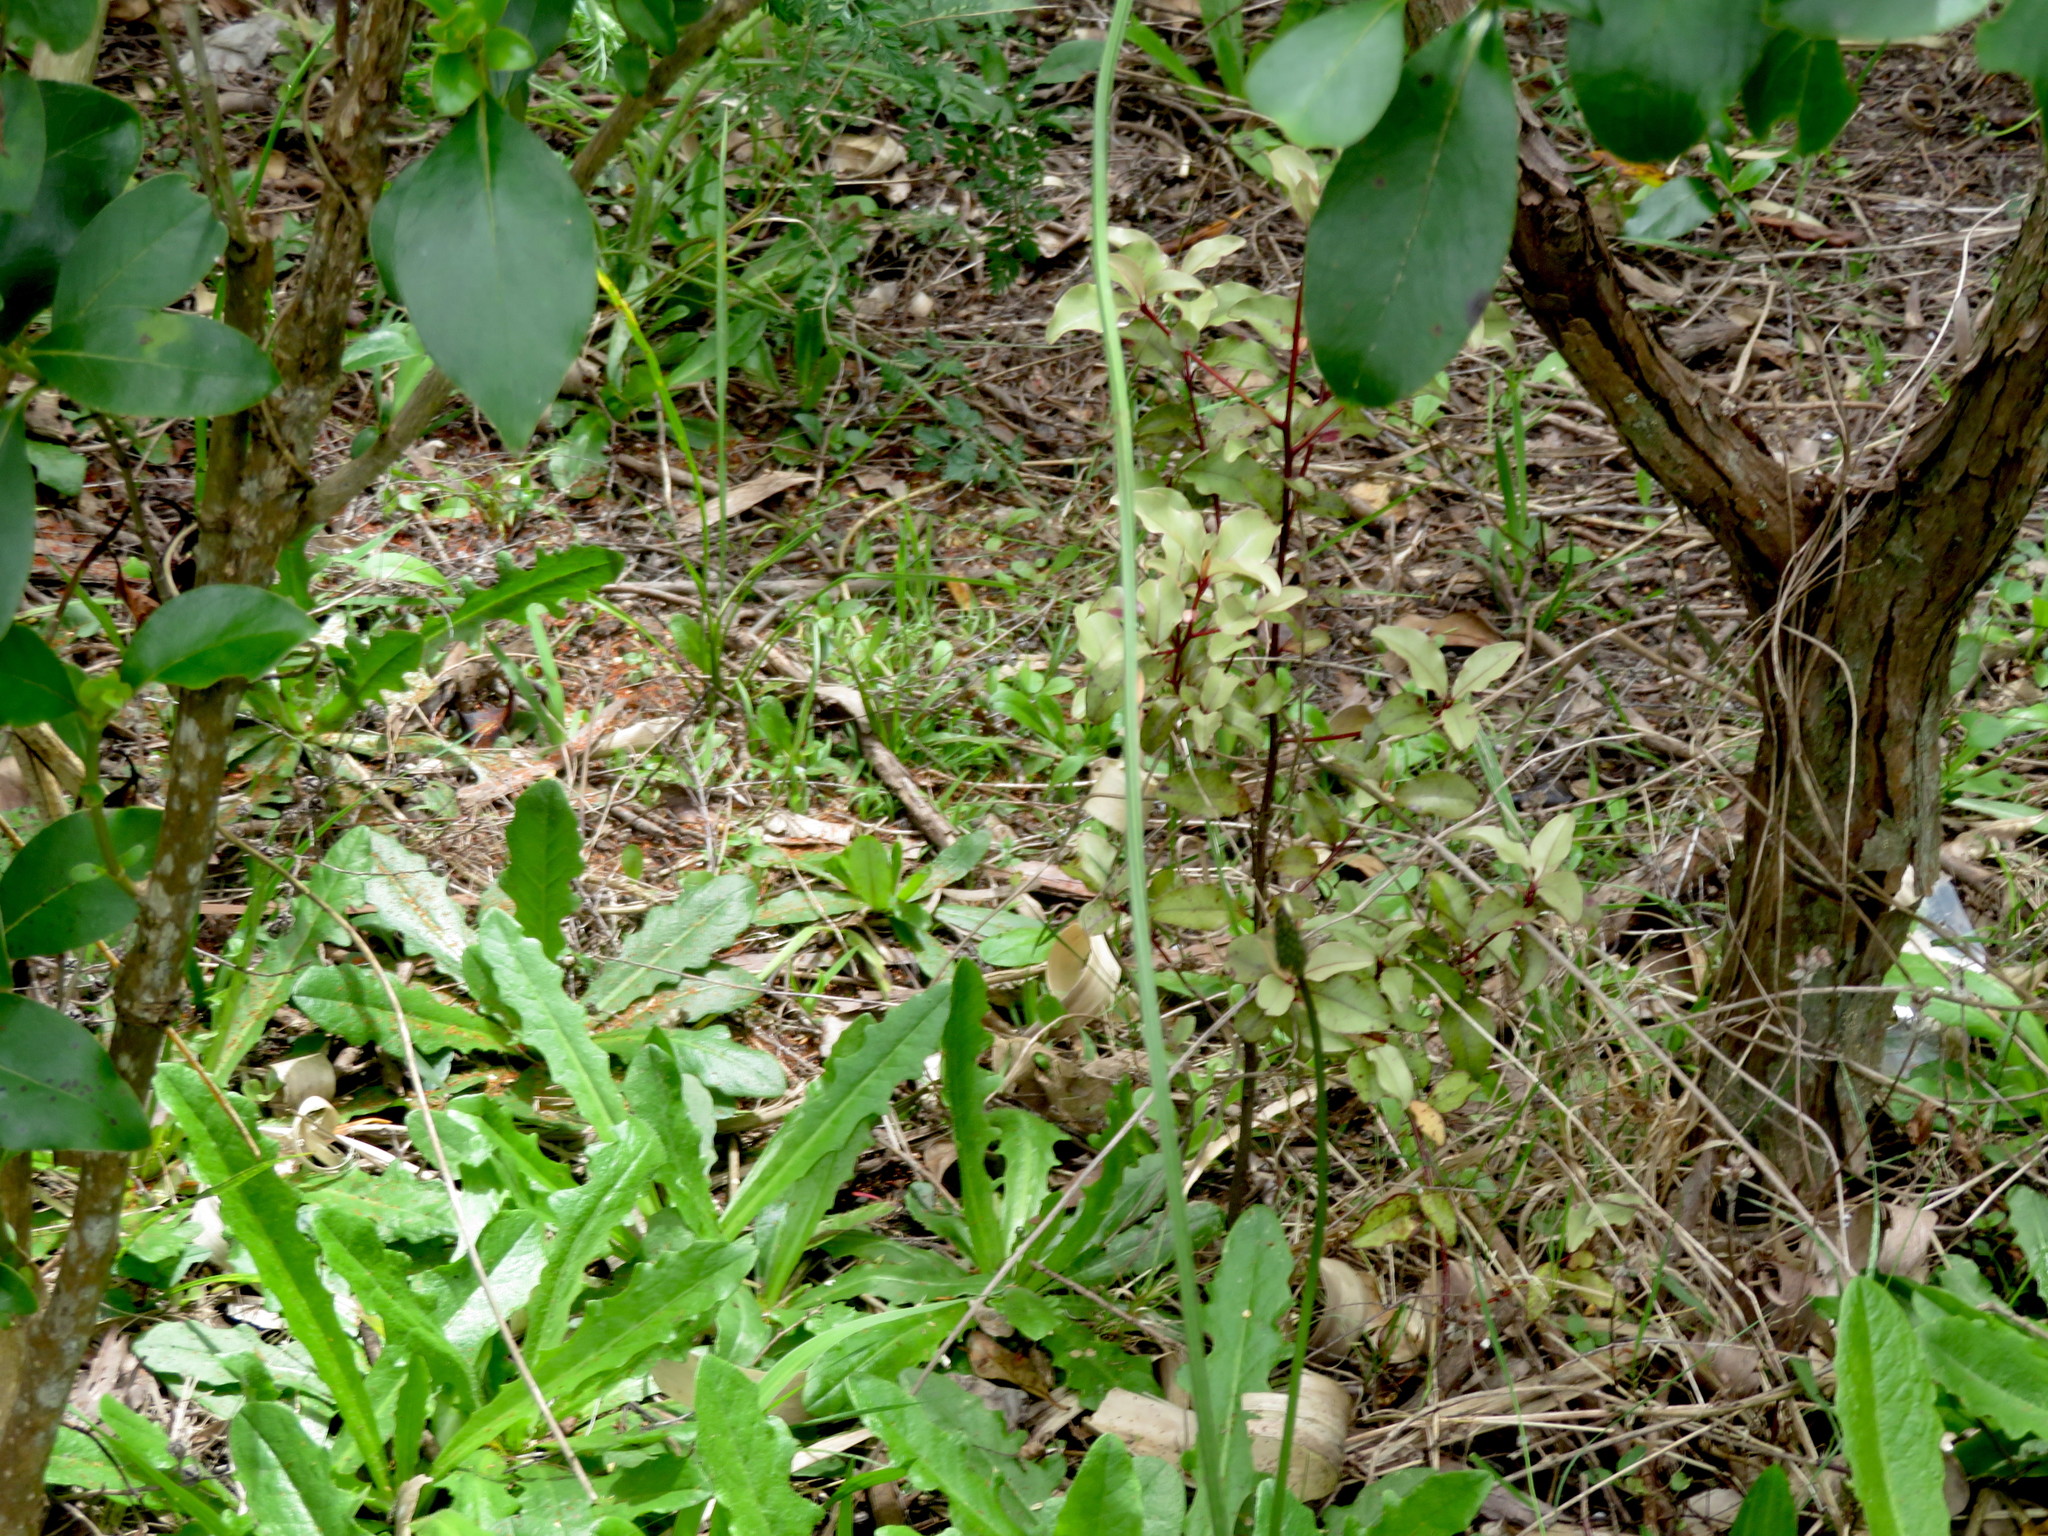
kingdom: Plantae
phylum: Tracheophyta
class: Magnoliopsida
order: Asterales
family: Asteraceae
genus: Hypochaeris
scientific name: Hypochaeris radicata
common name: Flatweed
